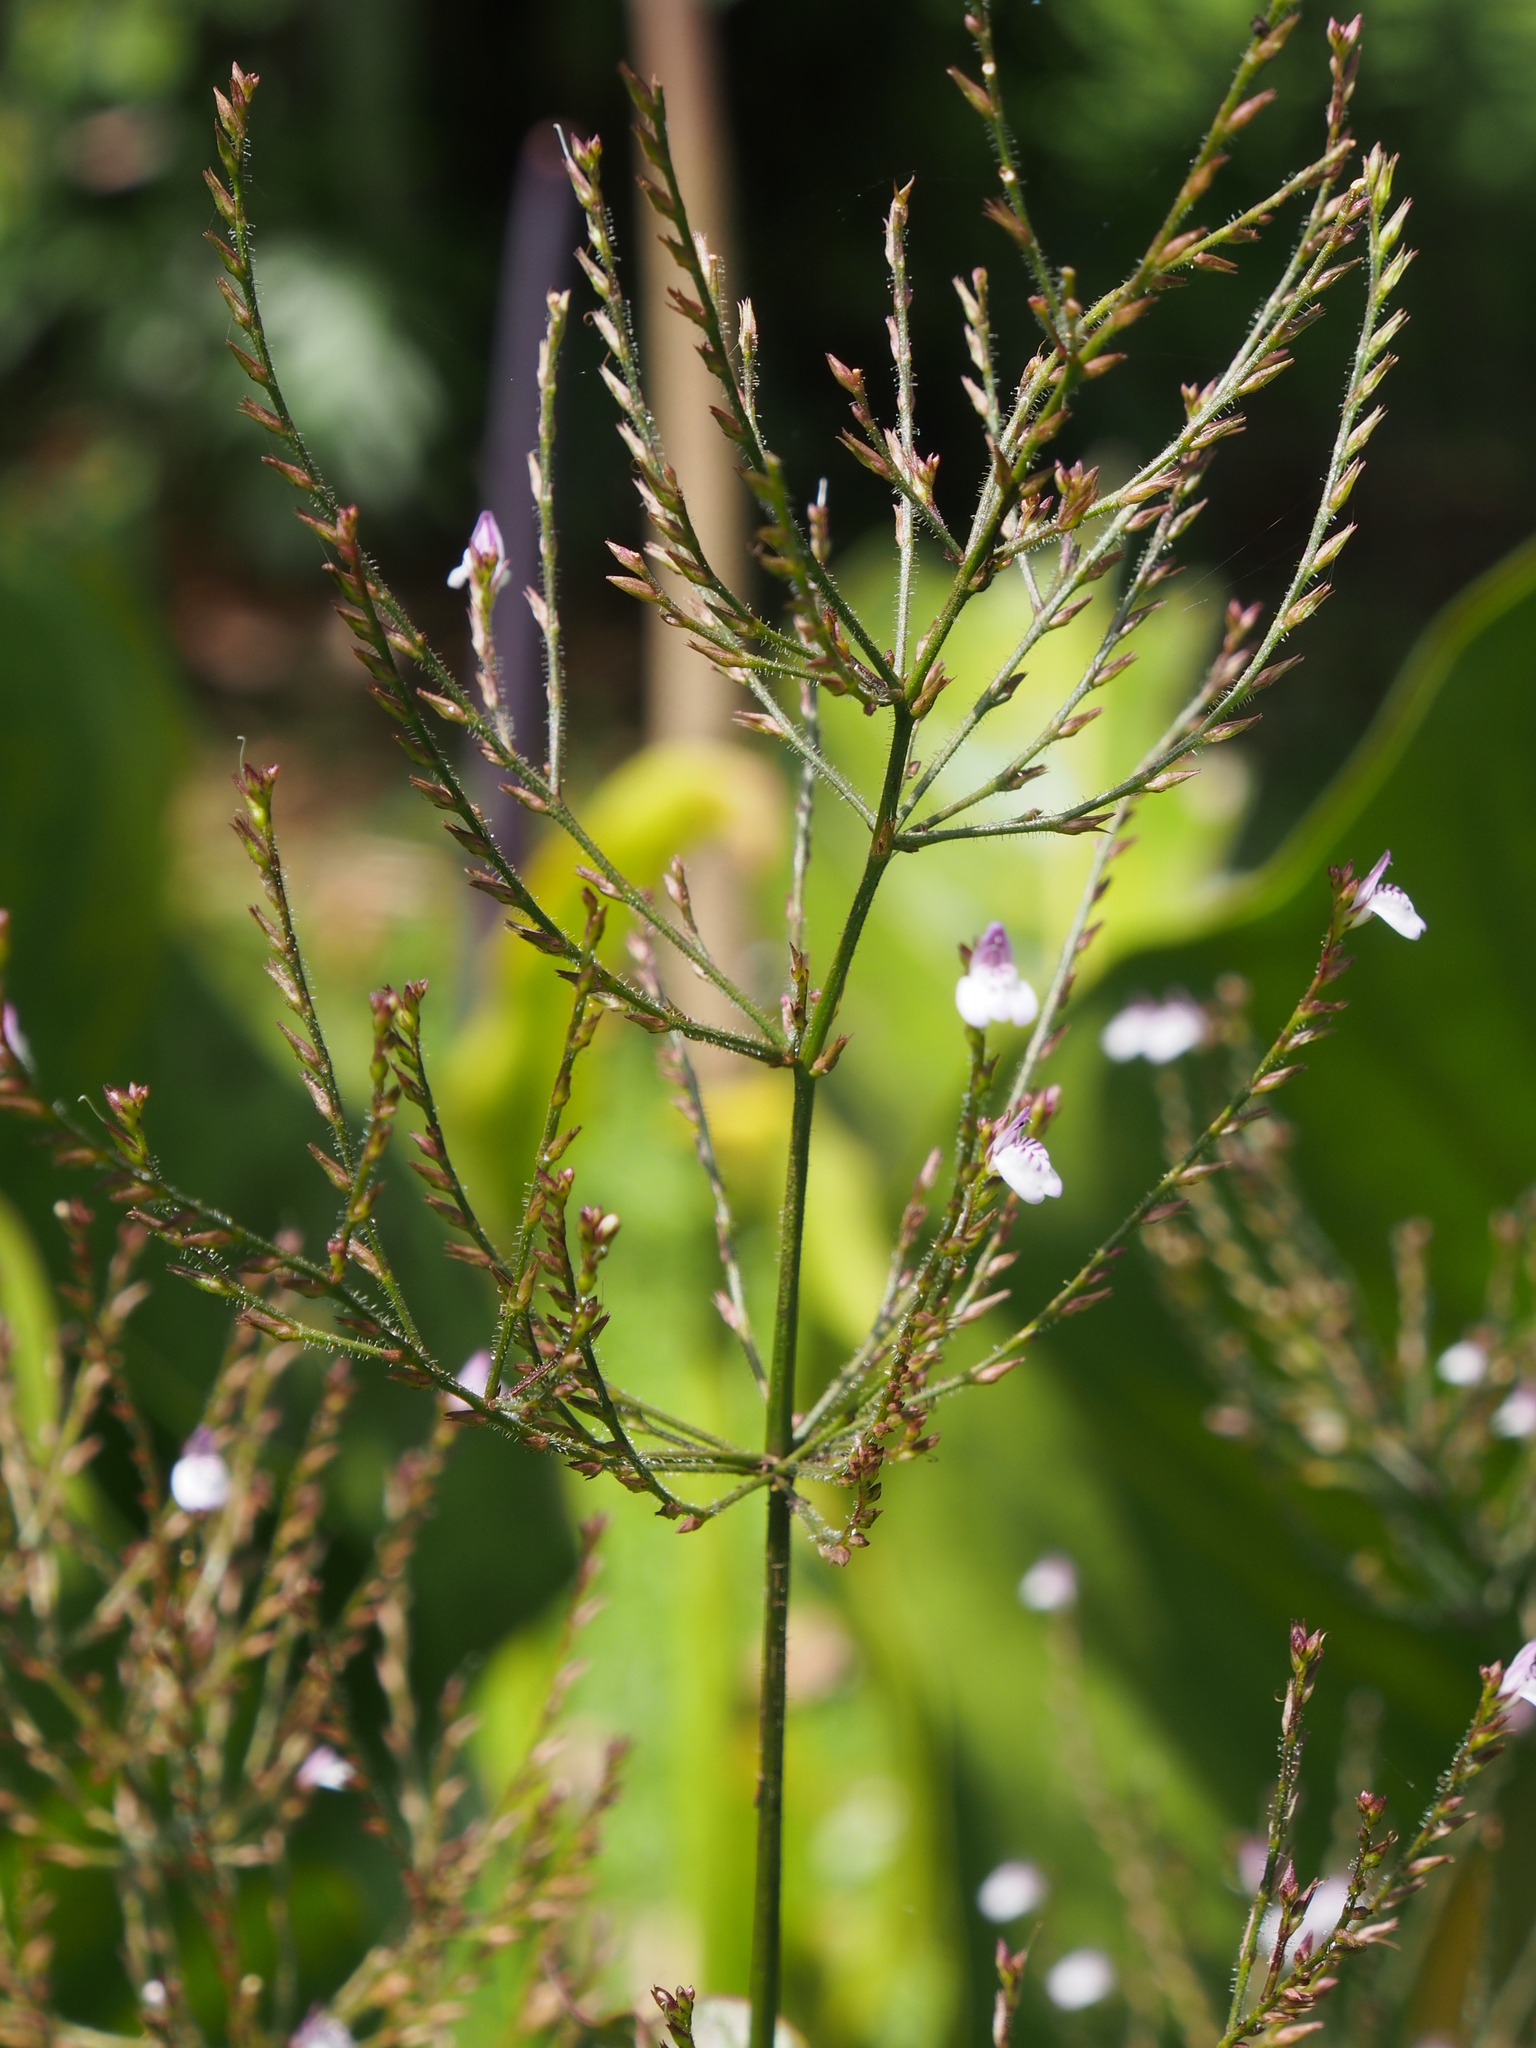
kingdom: Plantae
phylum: Tracheophyta
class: Magnoliopsida
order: Lamiales
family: Acanthaceae
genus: Justicia
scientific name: Justicia comata
